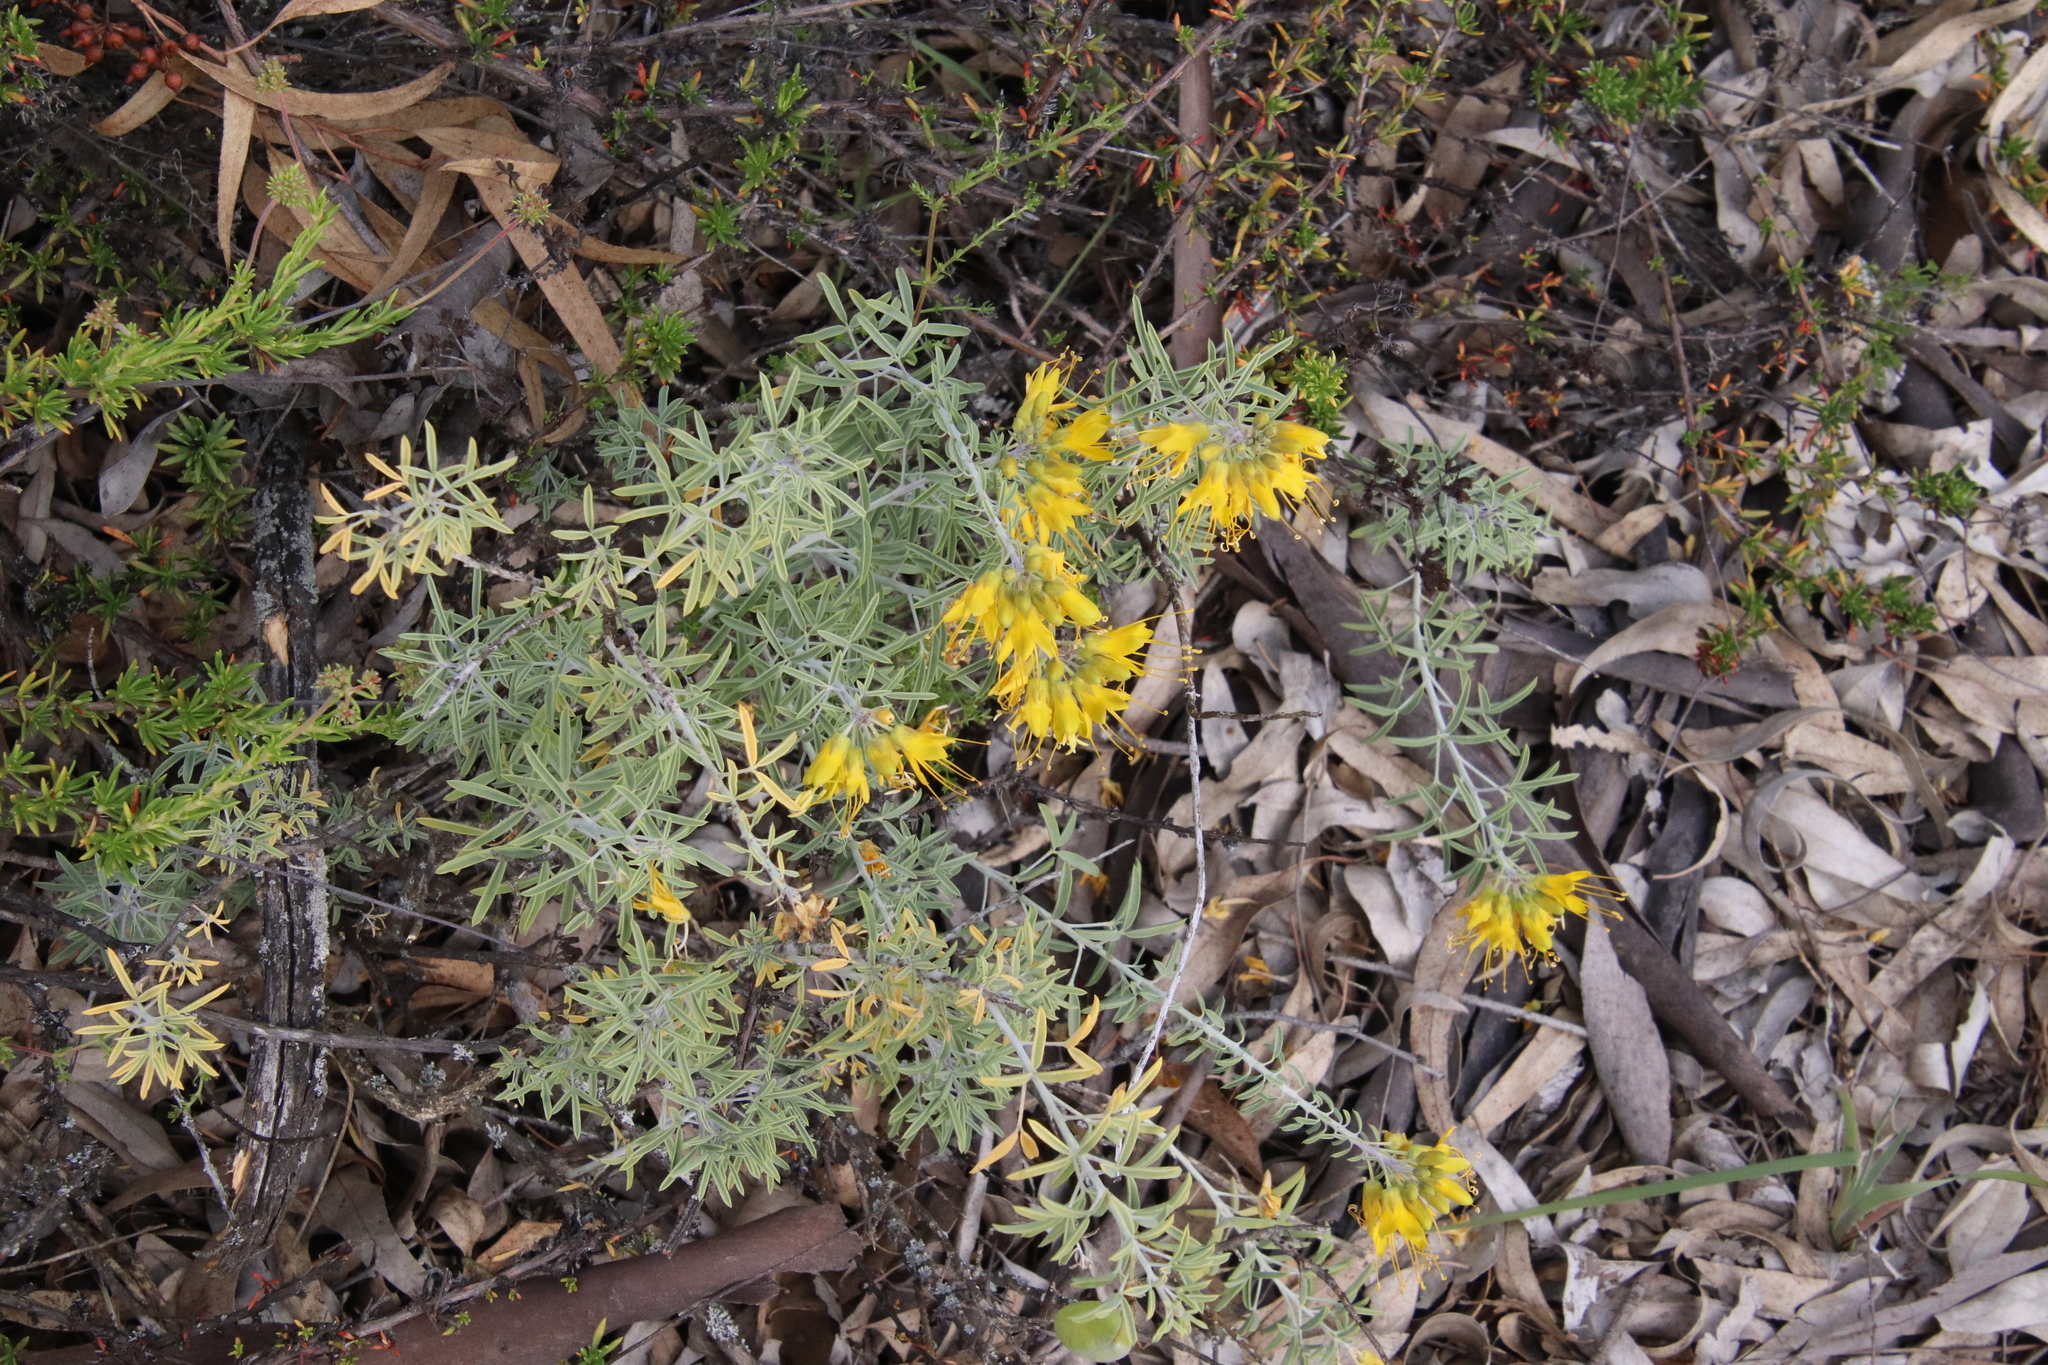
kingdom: Plantae
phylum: Tracheophyta
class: Magnoliopsida
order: Brassicales
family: Cleomaceae
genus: Cleomella
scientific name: Cleomella arborea
